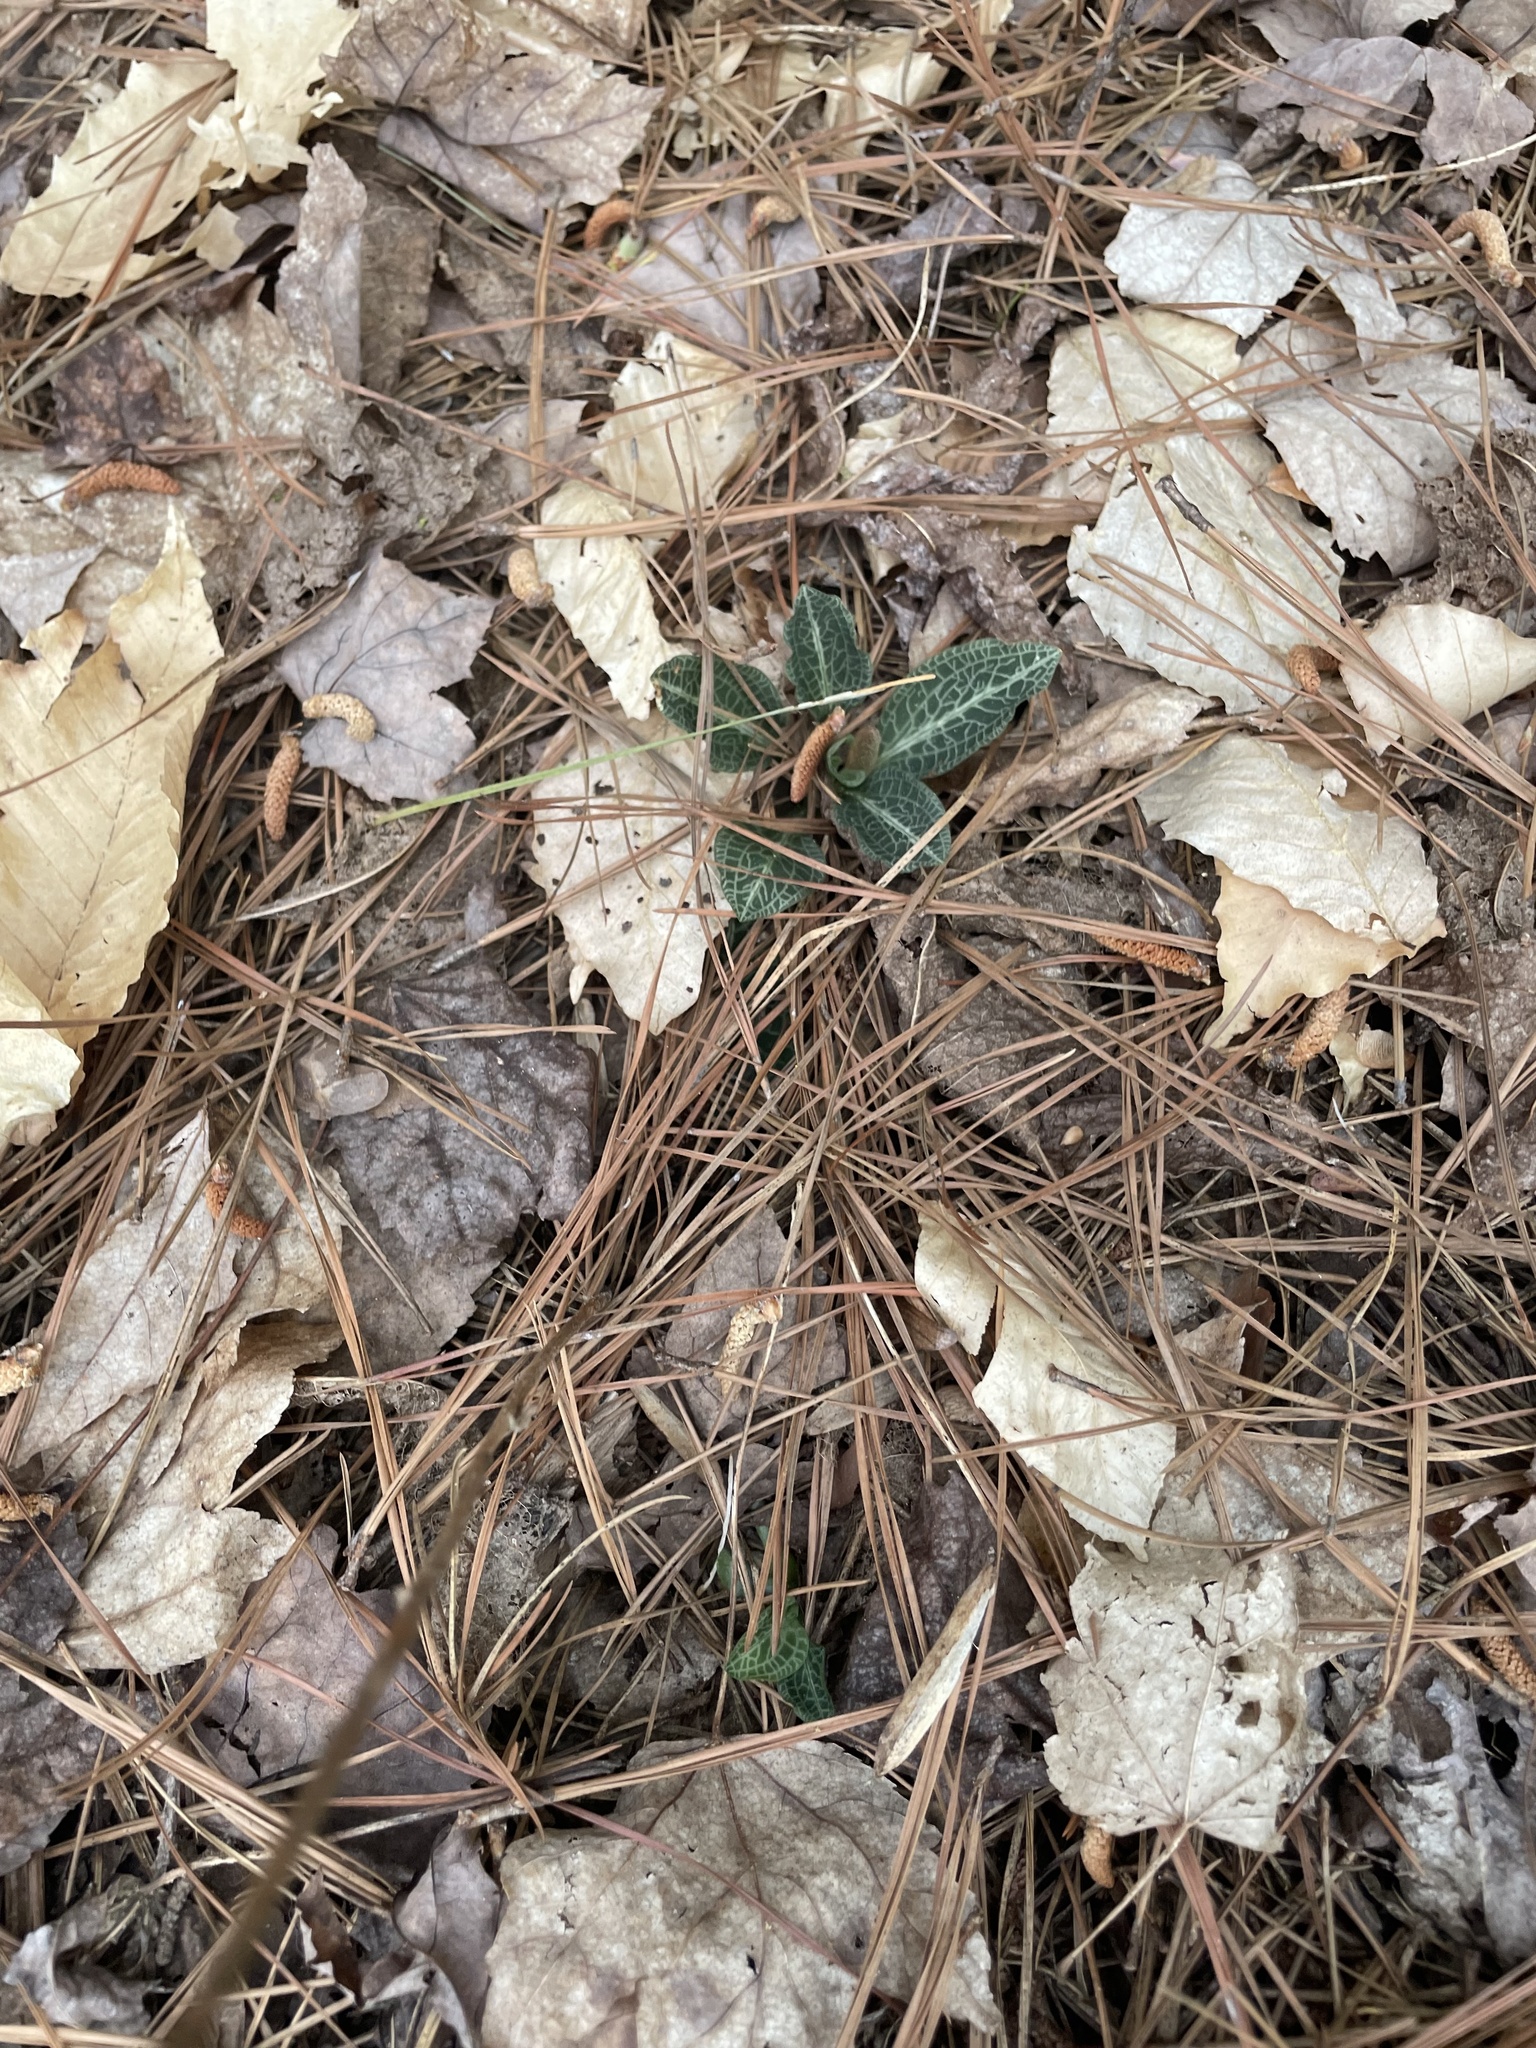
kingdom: Plantae
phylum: Tracheophyta
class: Liliopsida
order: Asparagales
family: Orchidaceae
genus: Goodyera
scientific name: Goodyera pubescens
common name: Downy rattlesnake-plantain
